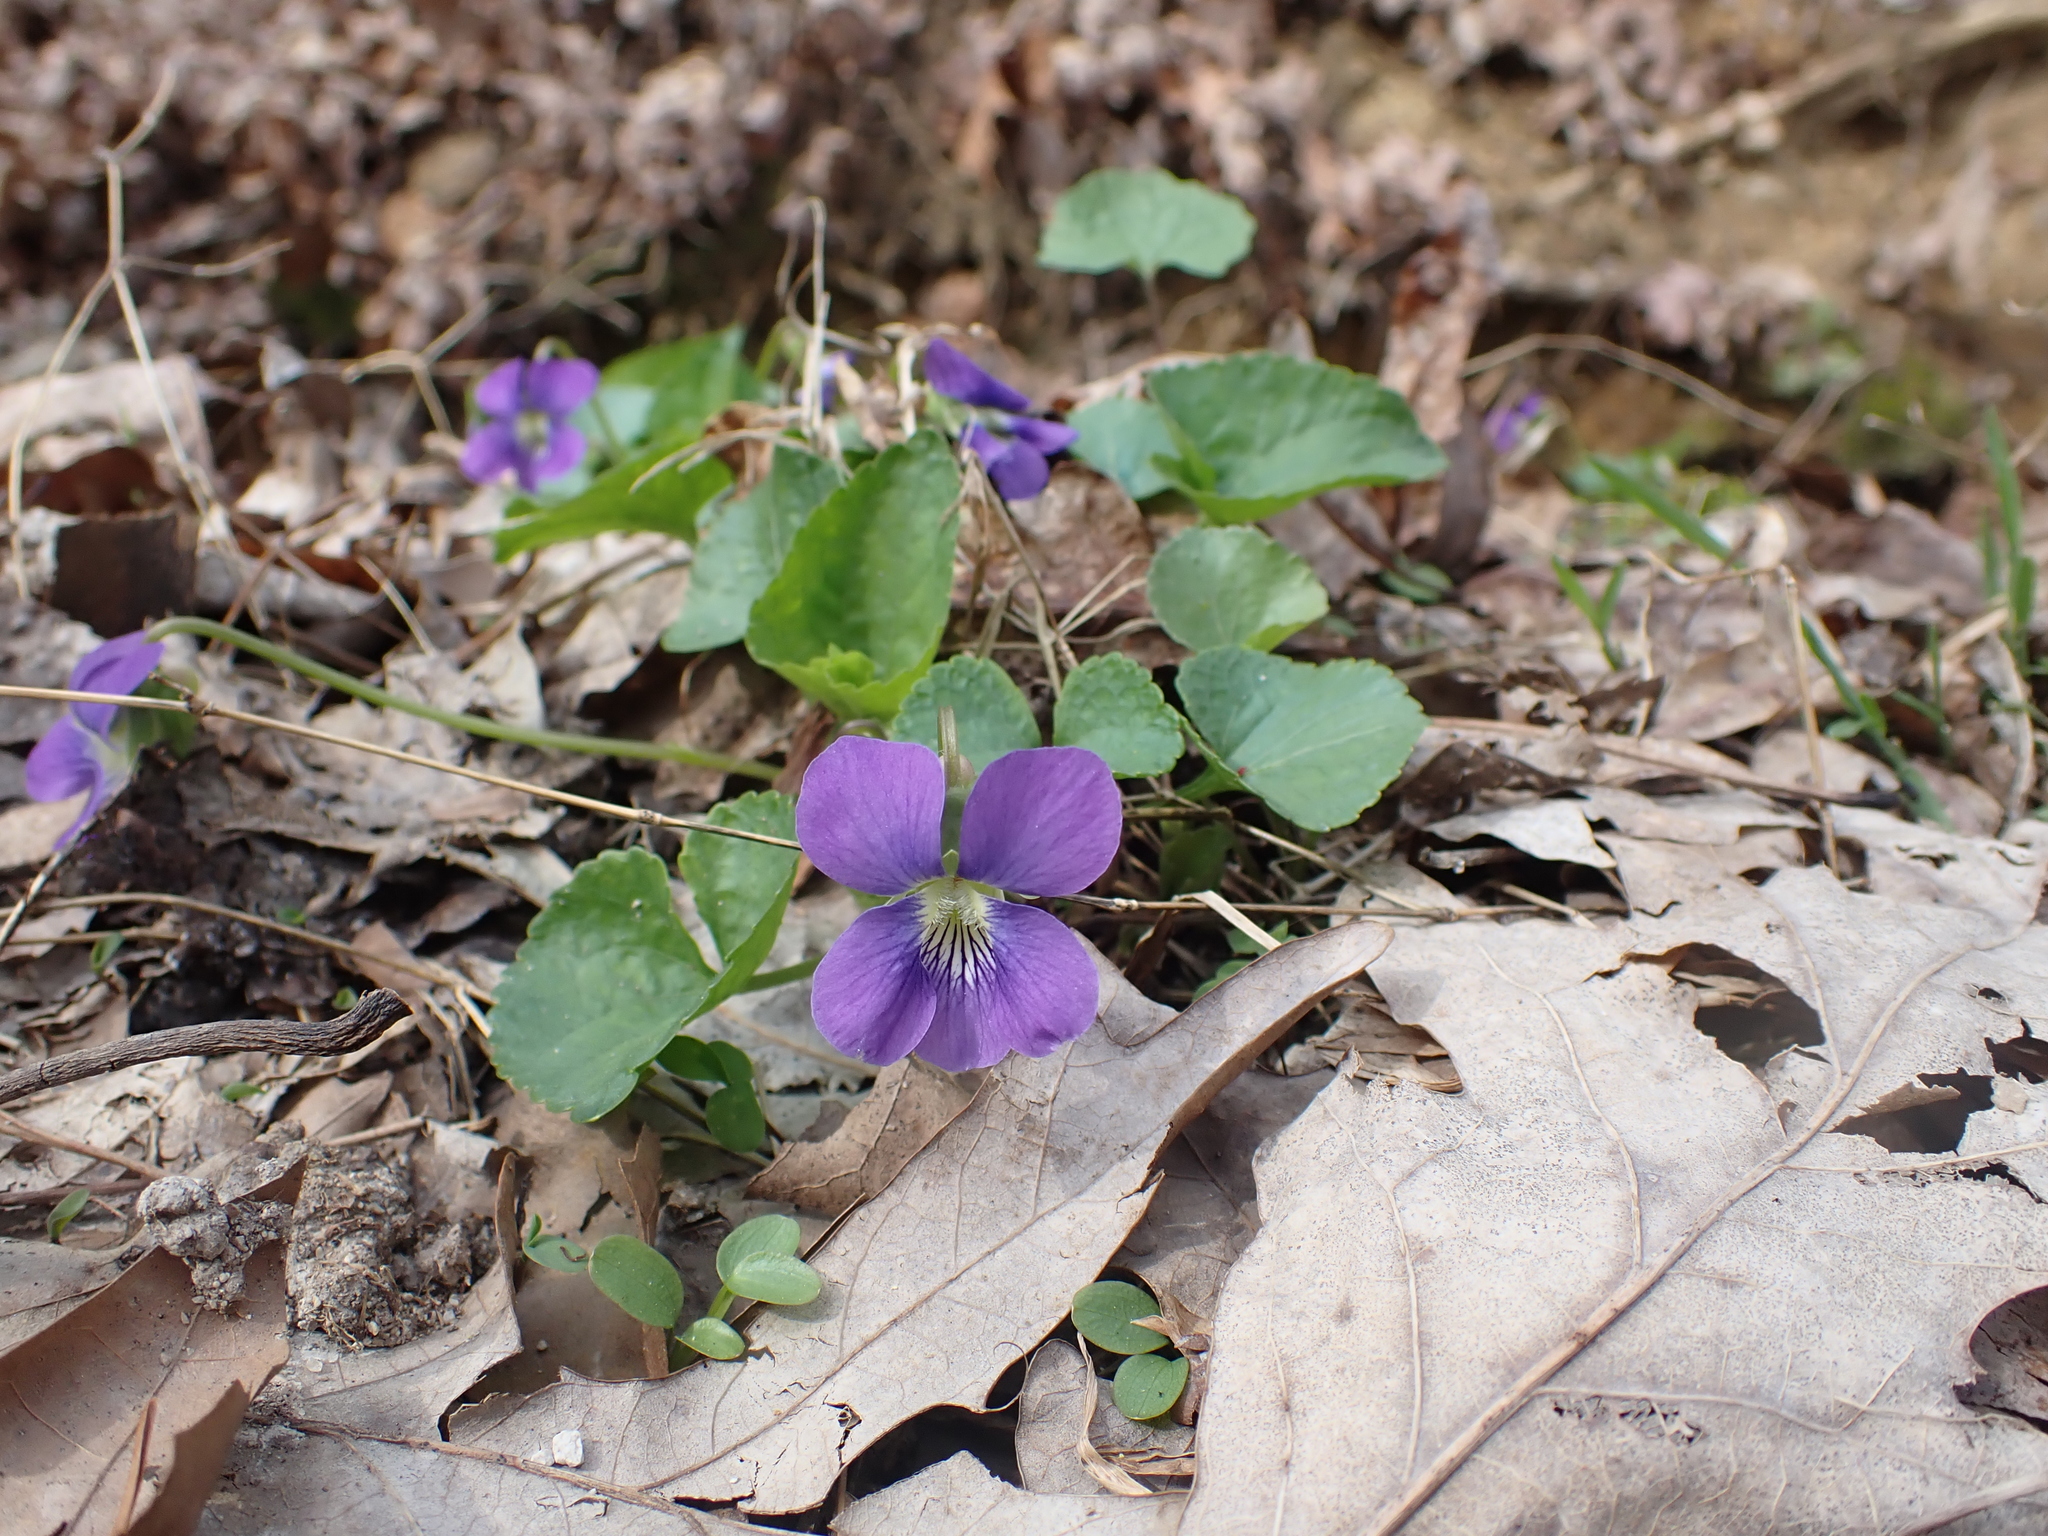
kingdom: Plantae
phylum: Tracheophyta
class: Magnoliopsida
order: Malpighiales
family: Violaceae
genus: Viola
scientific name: Viola sororia
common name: Dooryard violet
